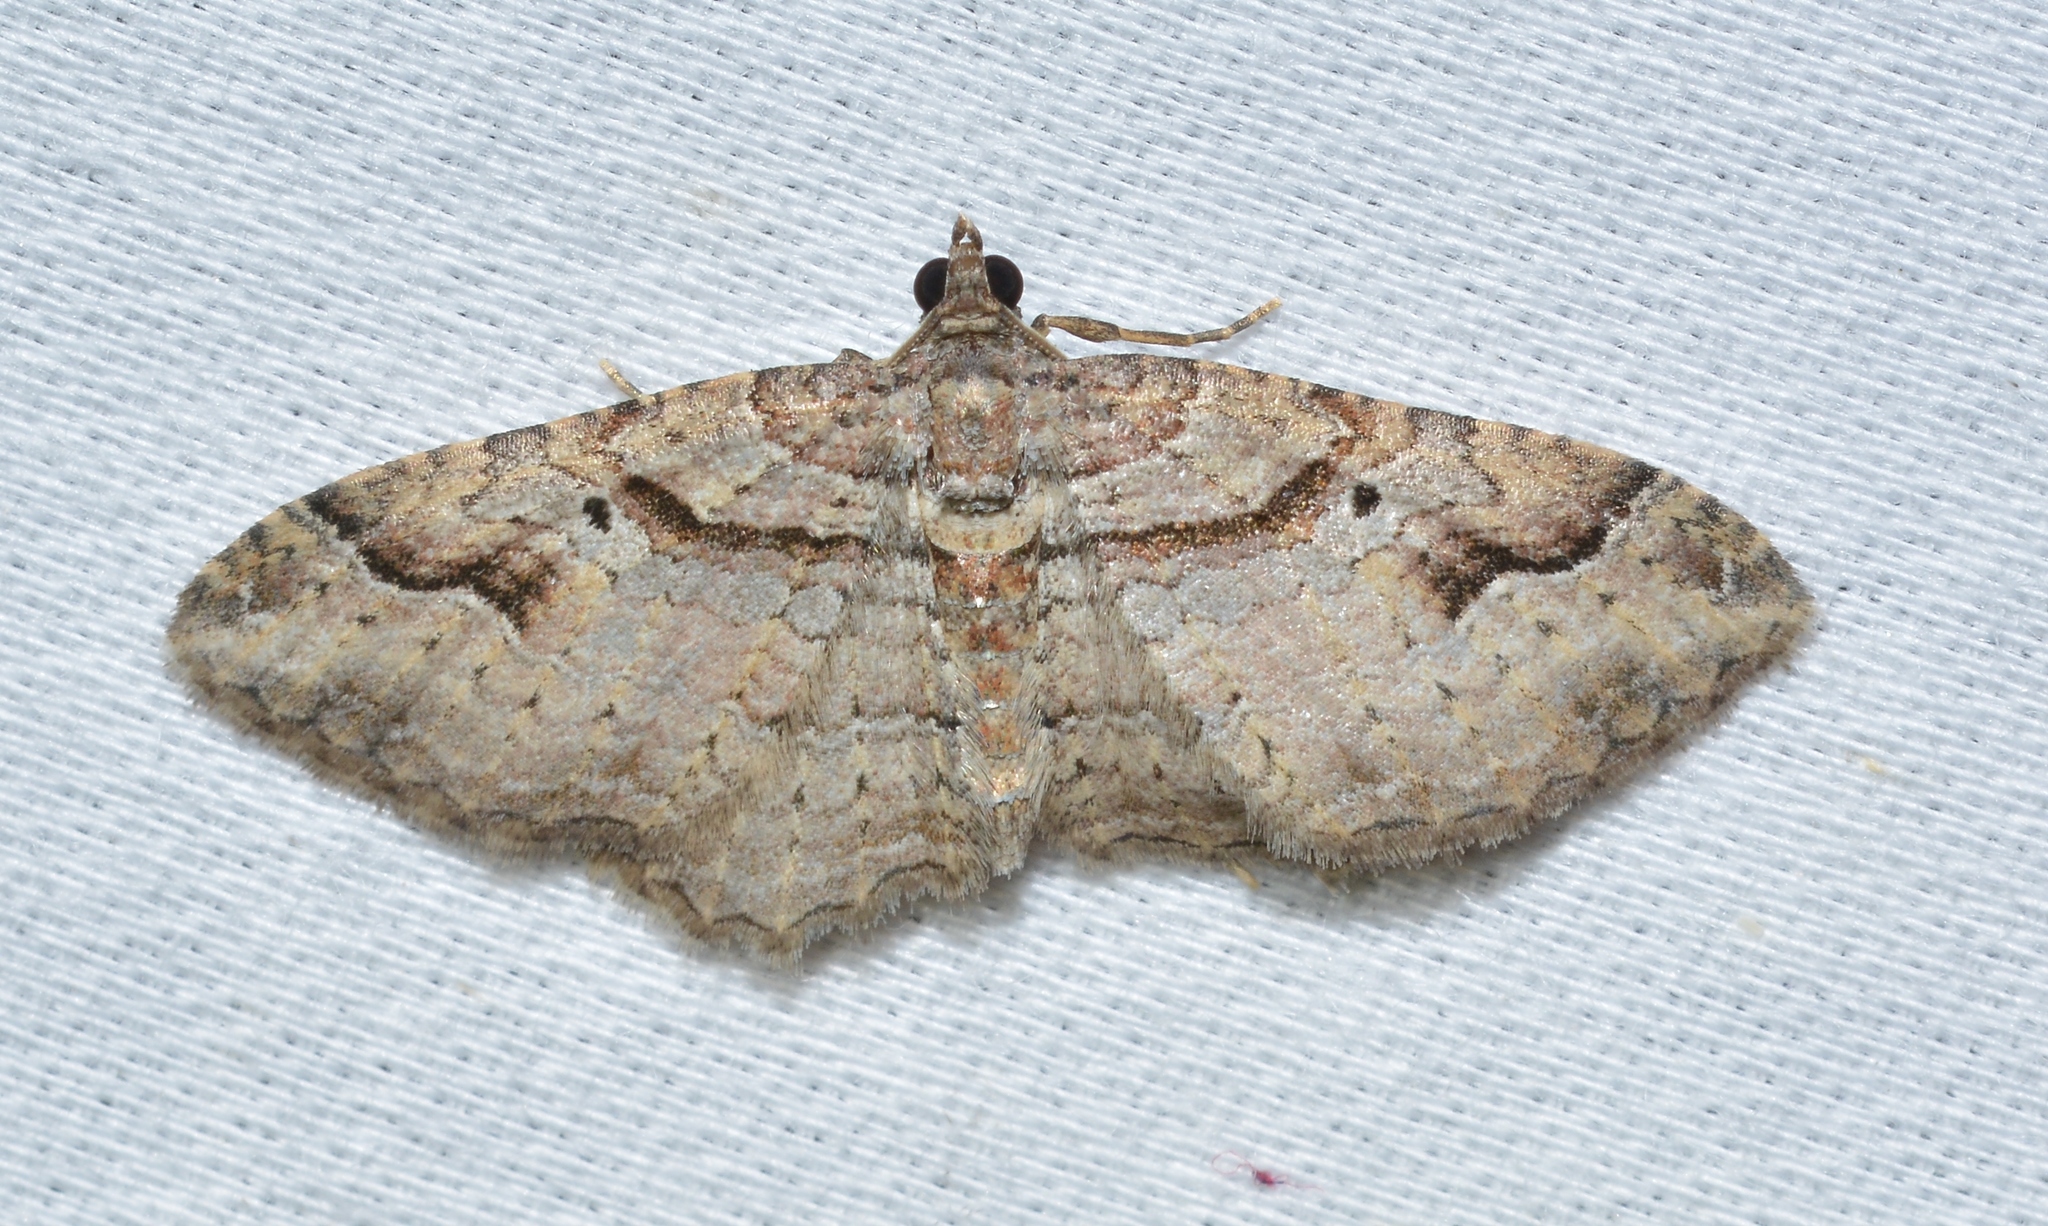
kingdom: Animalia
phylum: Arthropoda
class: Insecta
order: Lepidoptera
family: Geometridae
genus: Costaconvexa
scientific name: Costaconvexa centrostrigaria
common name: Bent-line carpet
